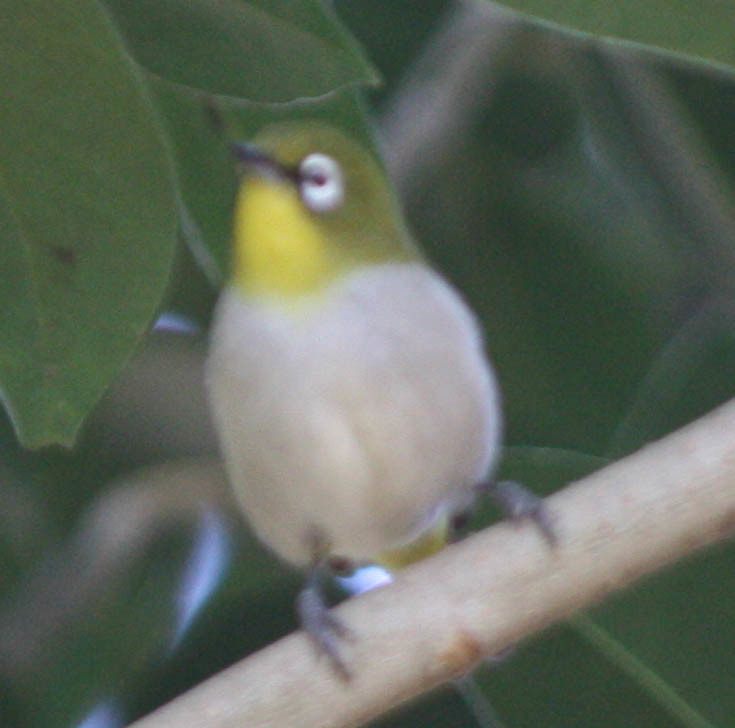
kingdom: Animalia
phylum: Chordata
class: Aves
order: Passeriformes
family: Zosteropidae
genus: Zosterops
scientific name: Zosterops maderaspatanus
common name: Madagascar white-eye
